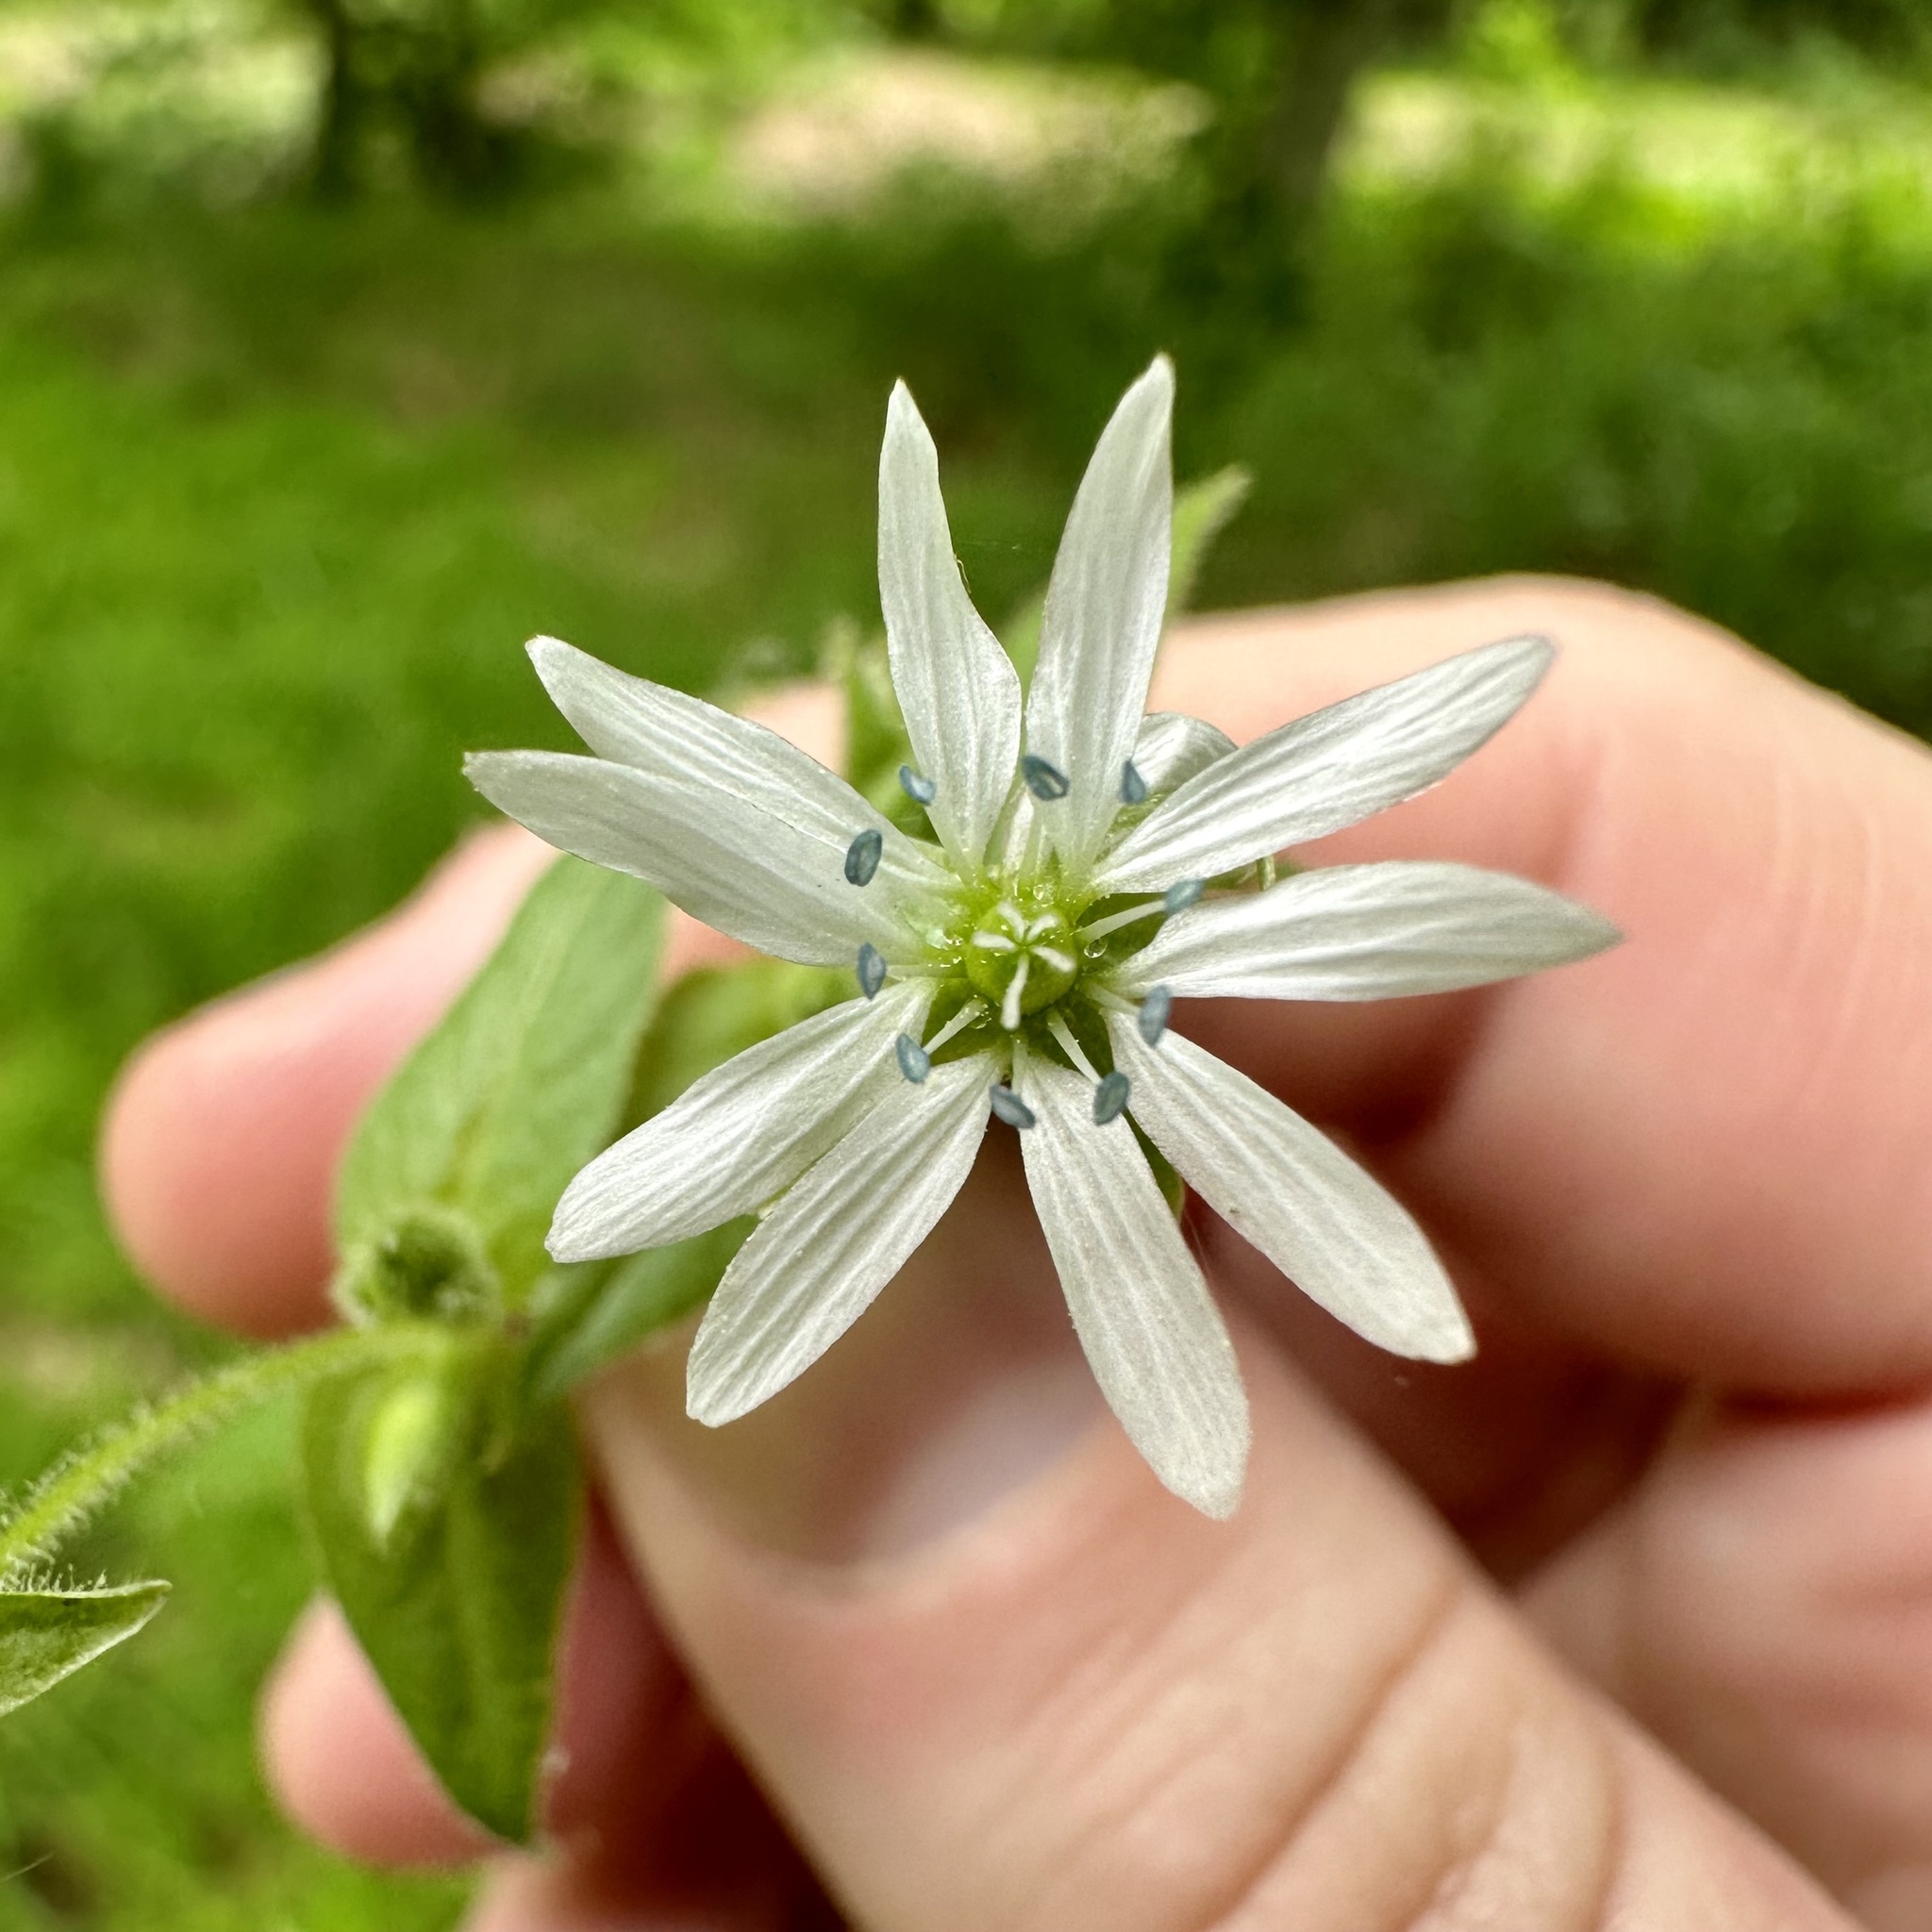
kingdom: Plantae
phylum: Tracheophyta
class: Magnoliopsida
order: Caryophyllales
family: Caryophyllaceae
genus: Stellaria
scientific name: Stellaria aquatica
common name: Water chickweed
